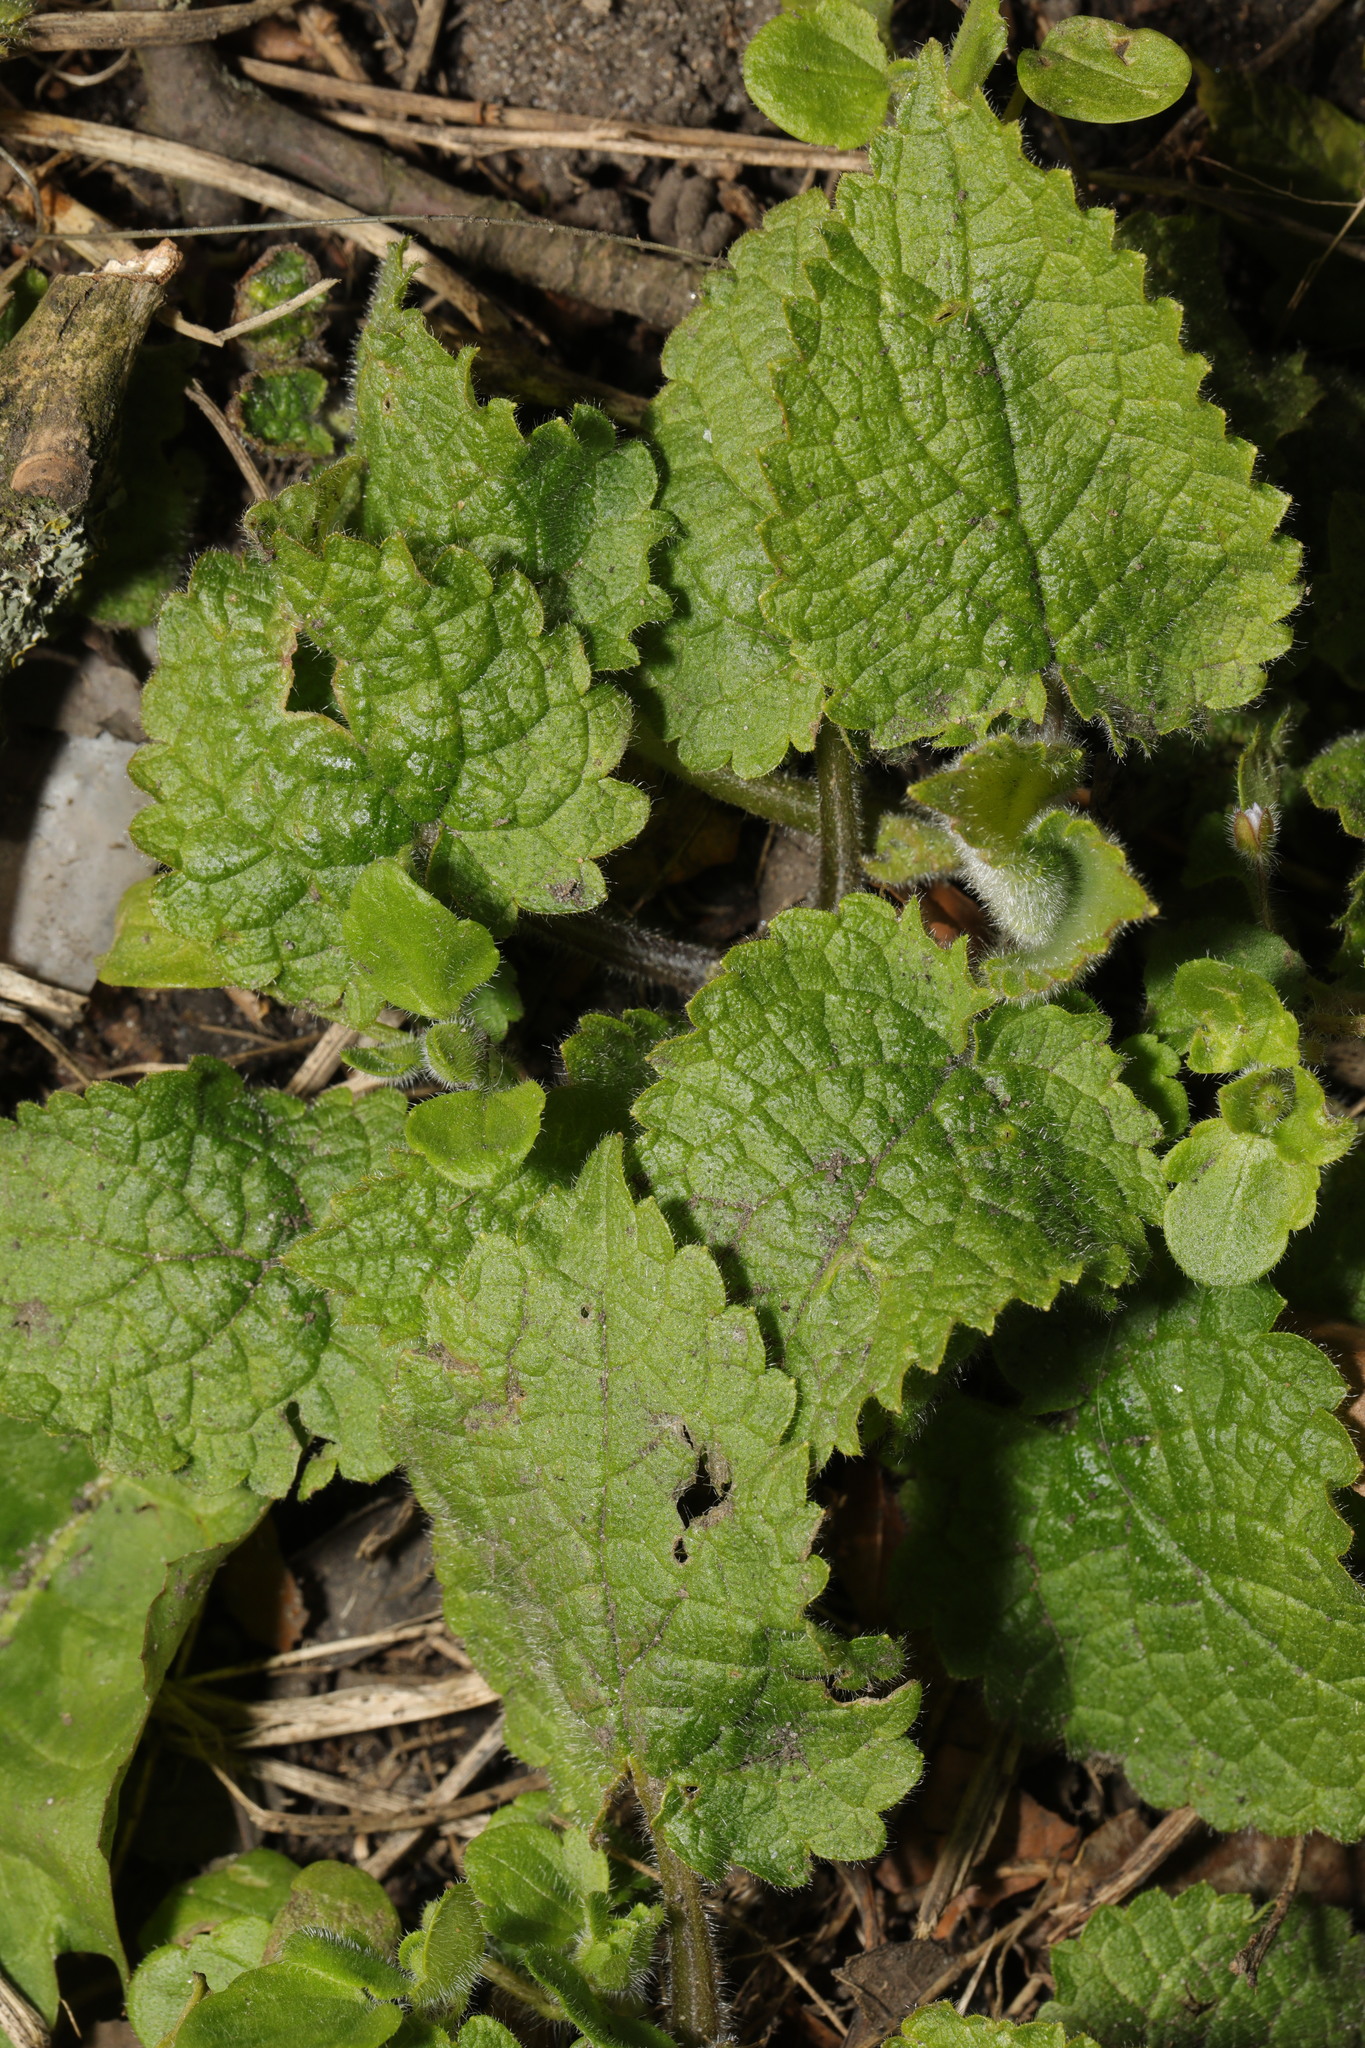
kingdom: Plantae
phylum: Tracheophyta
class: Magnoliopsida
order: Lamiales
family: Lamiaceae
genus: Stachys
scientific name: Stachys sylvatica
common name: Hedge woundwort
